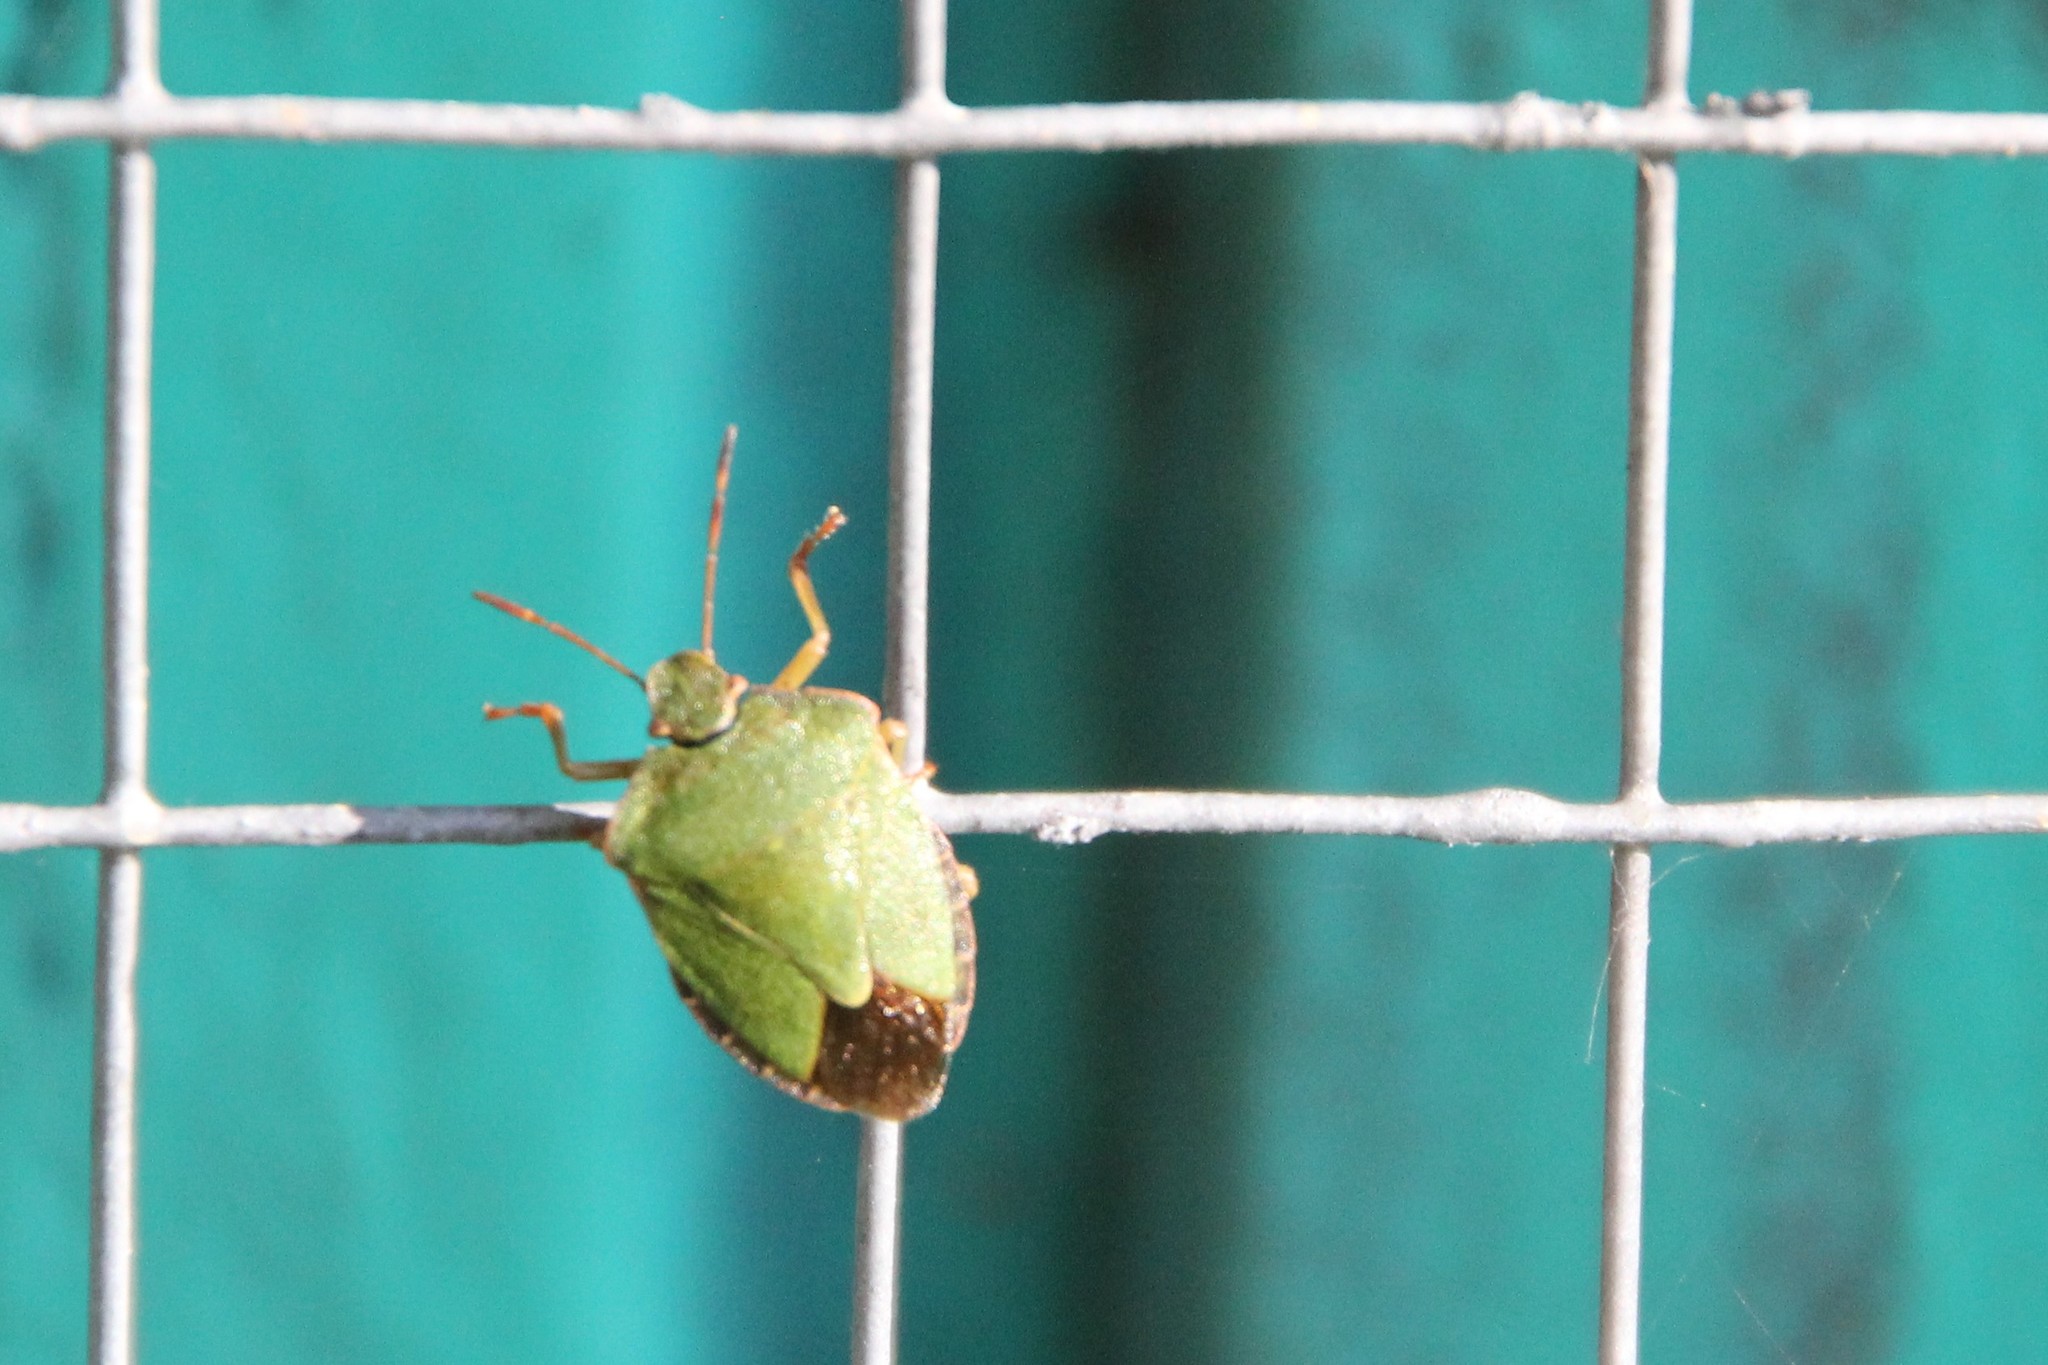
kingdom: Animalia
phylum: Arthropoda
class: Insecta
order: Hemiptera
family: Pentatomidae
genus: Palomena
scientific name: Palomena prasina
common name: Green shieldbug
